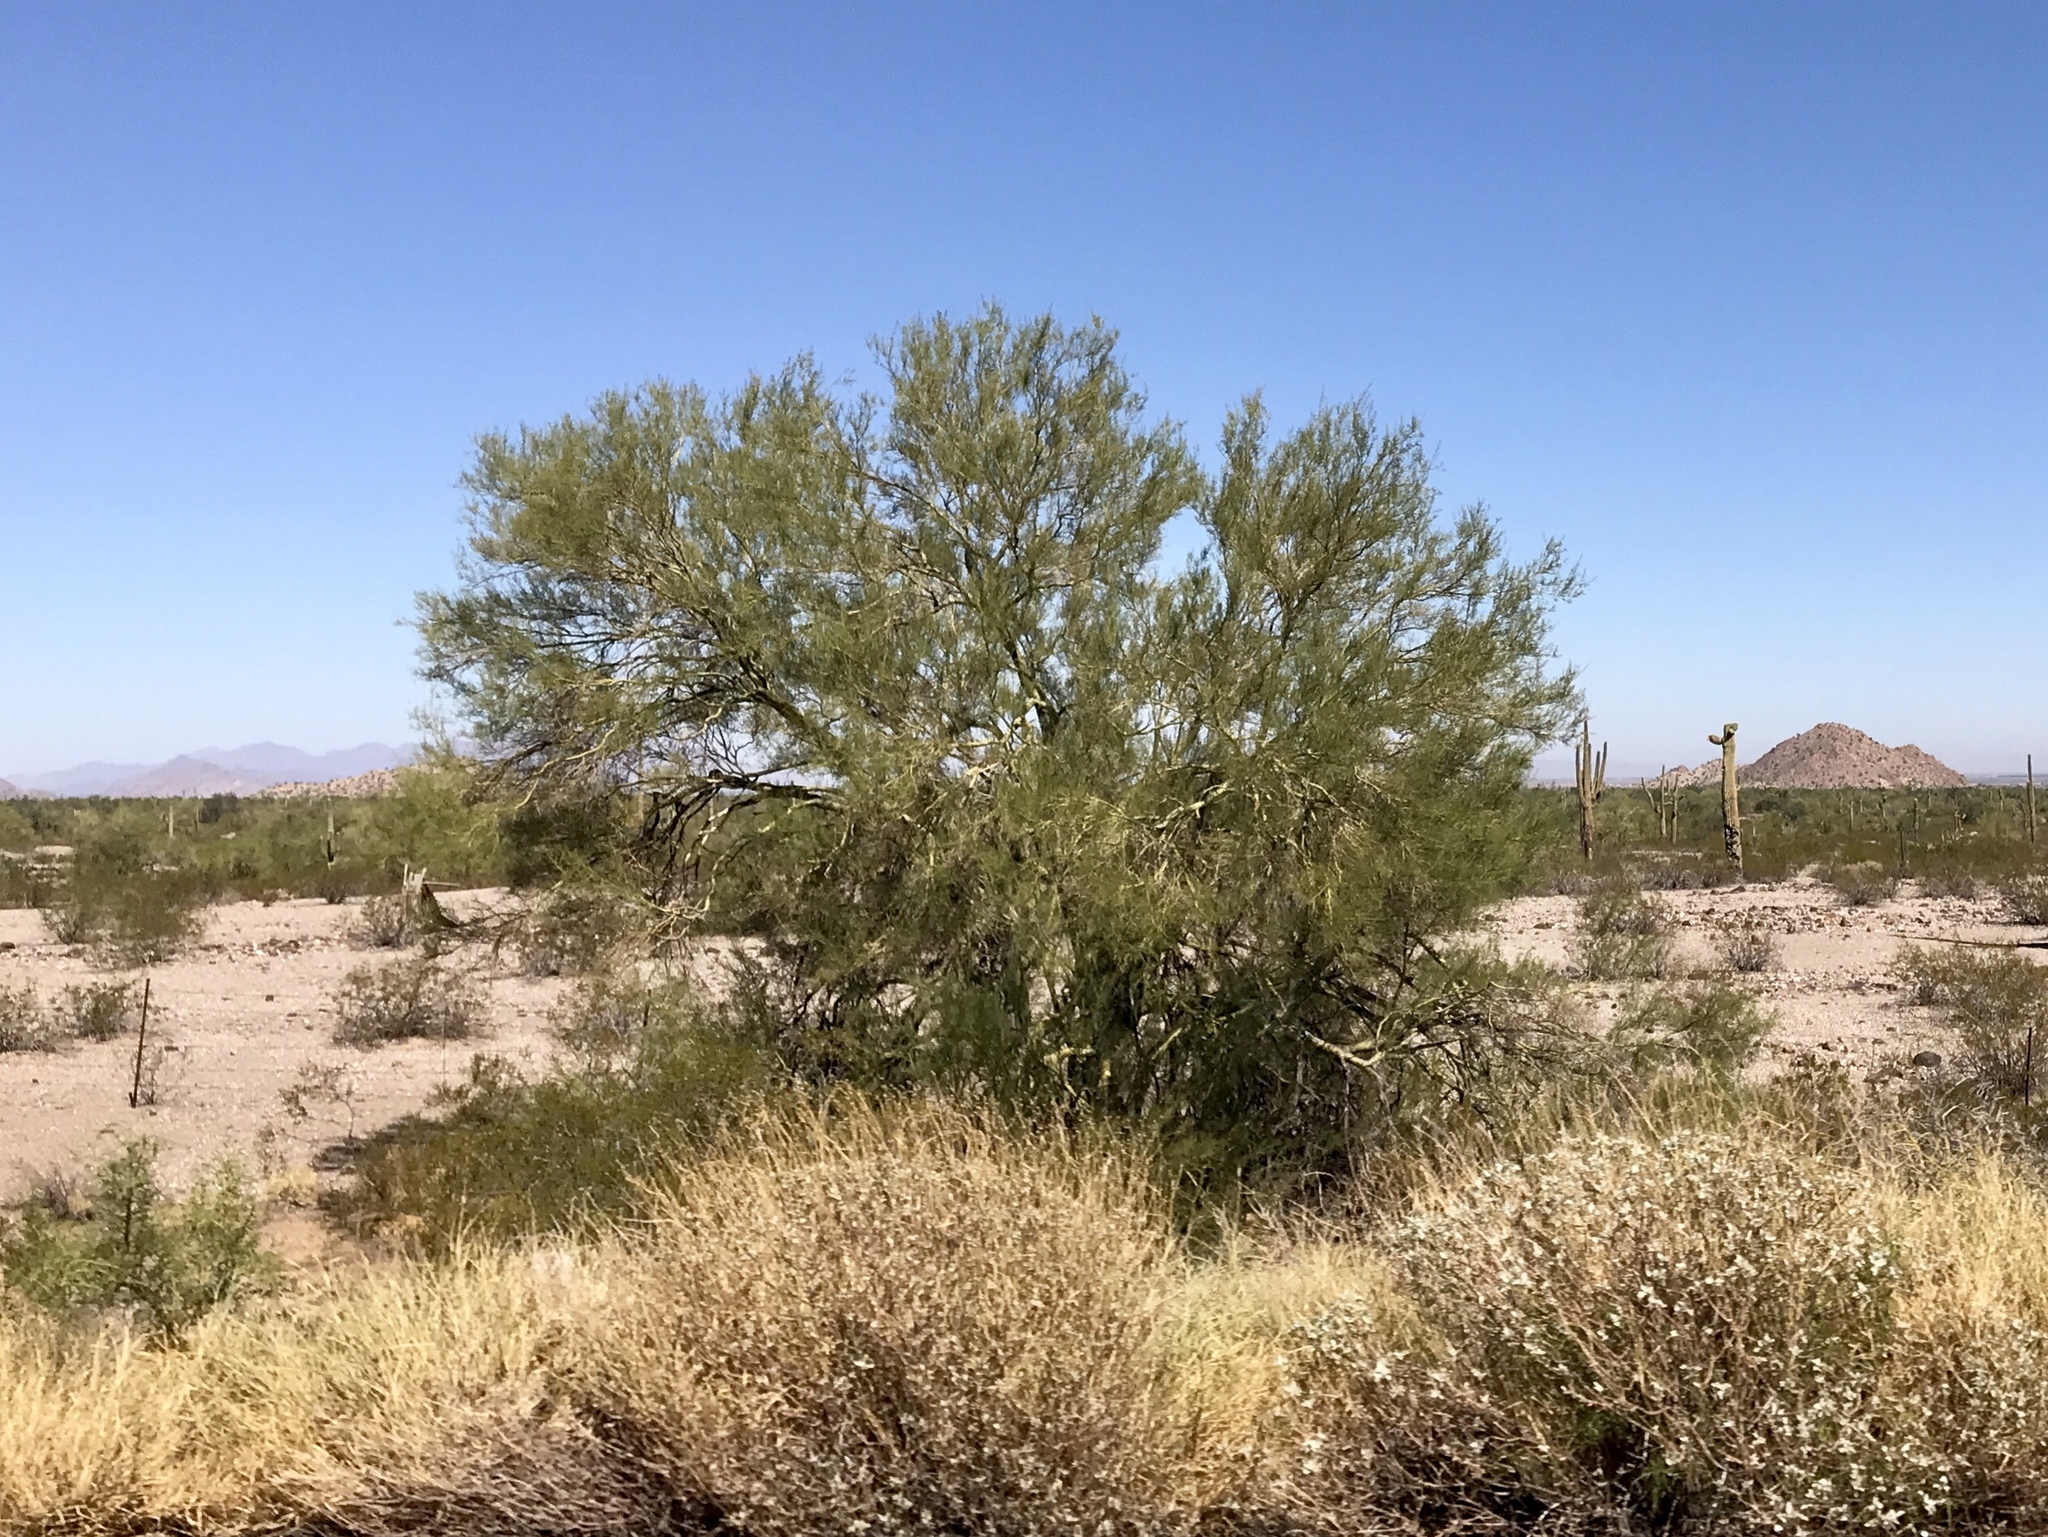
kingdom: Plantae
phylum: Tracheophyta
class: Magnoliopsida
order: Fabales
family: Fabaceae
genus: Parkinsonia
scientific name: Parkinsonia florida
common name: Blue paloverde
